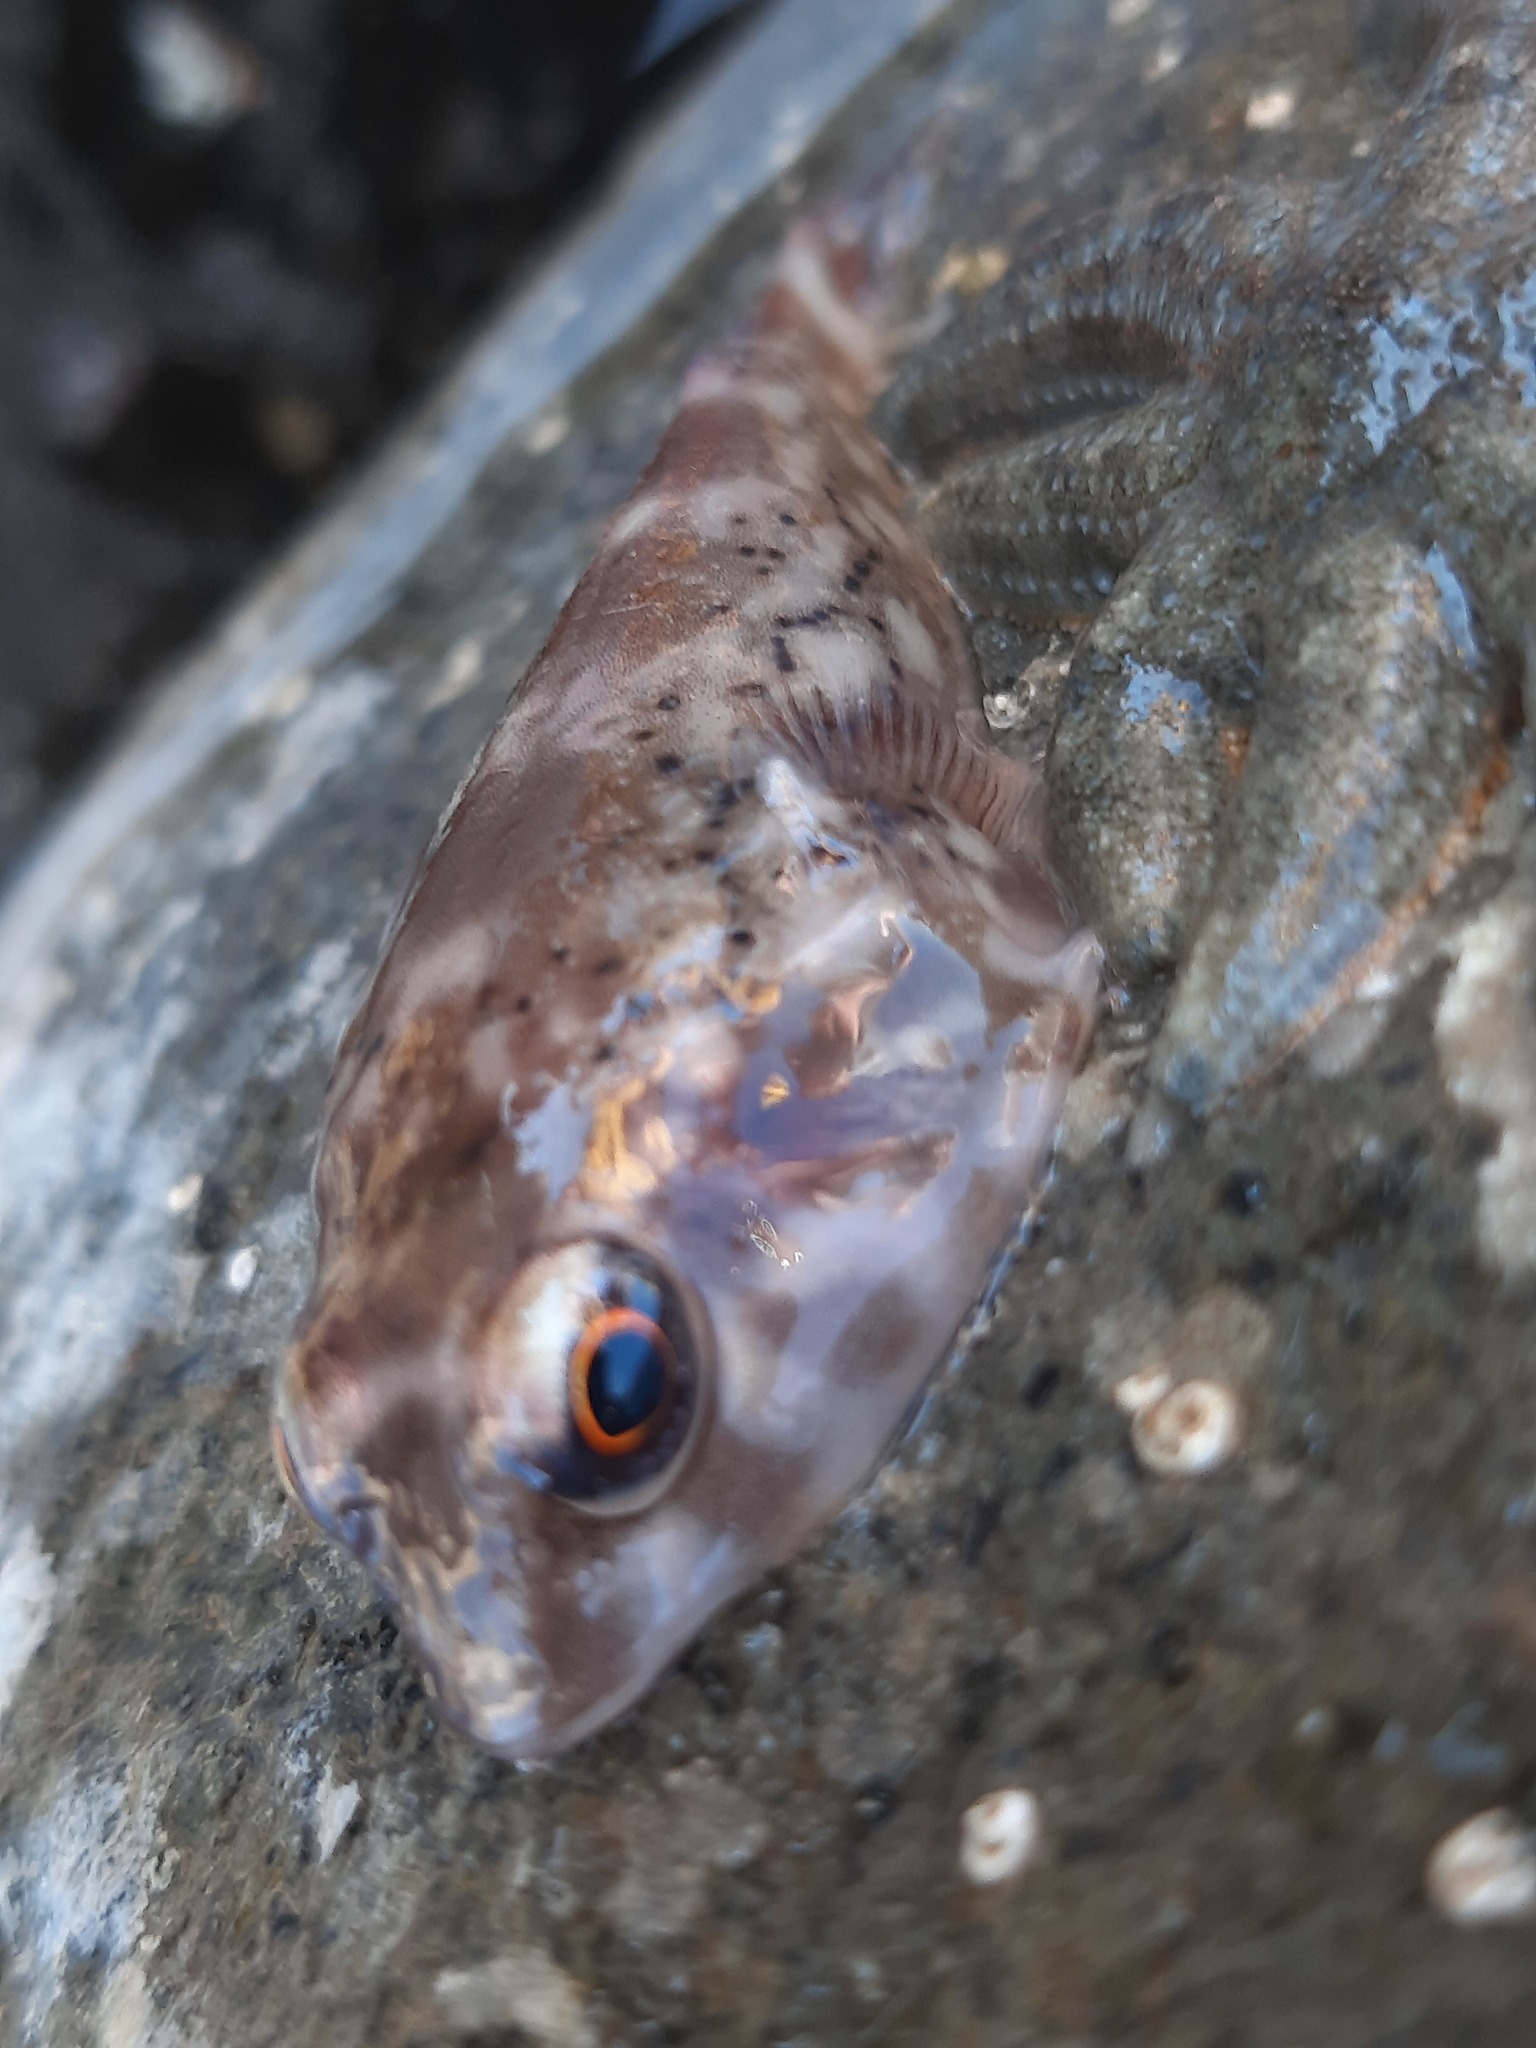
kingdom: Animalia
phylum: Chordata
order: Gobiesociformes
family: Gobiesocidae
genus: Diplocrepis
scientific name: Diplocrepis puniceus
